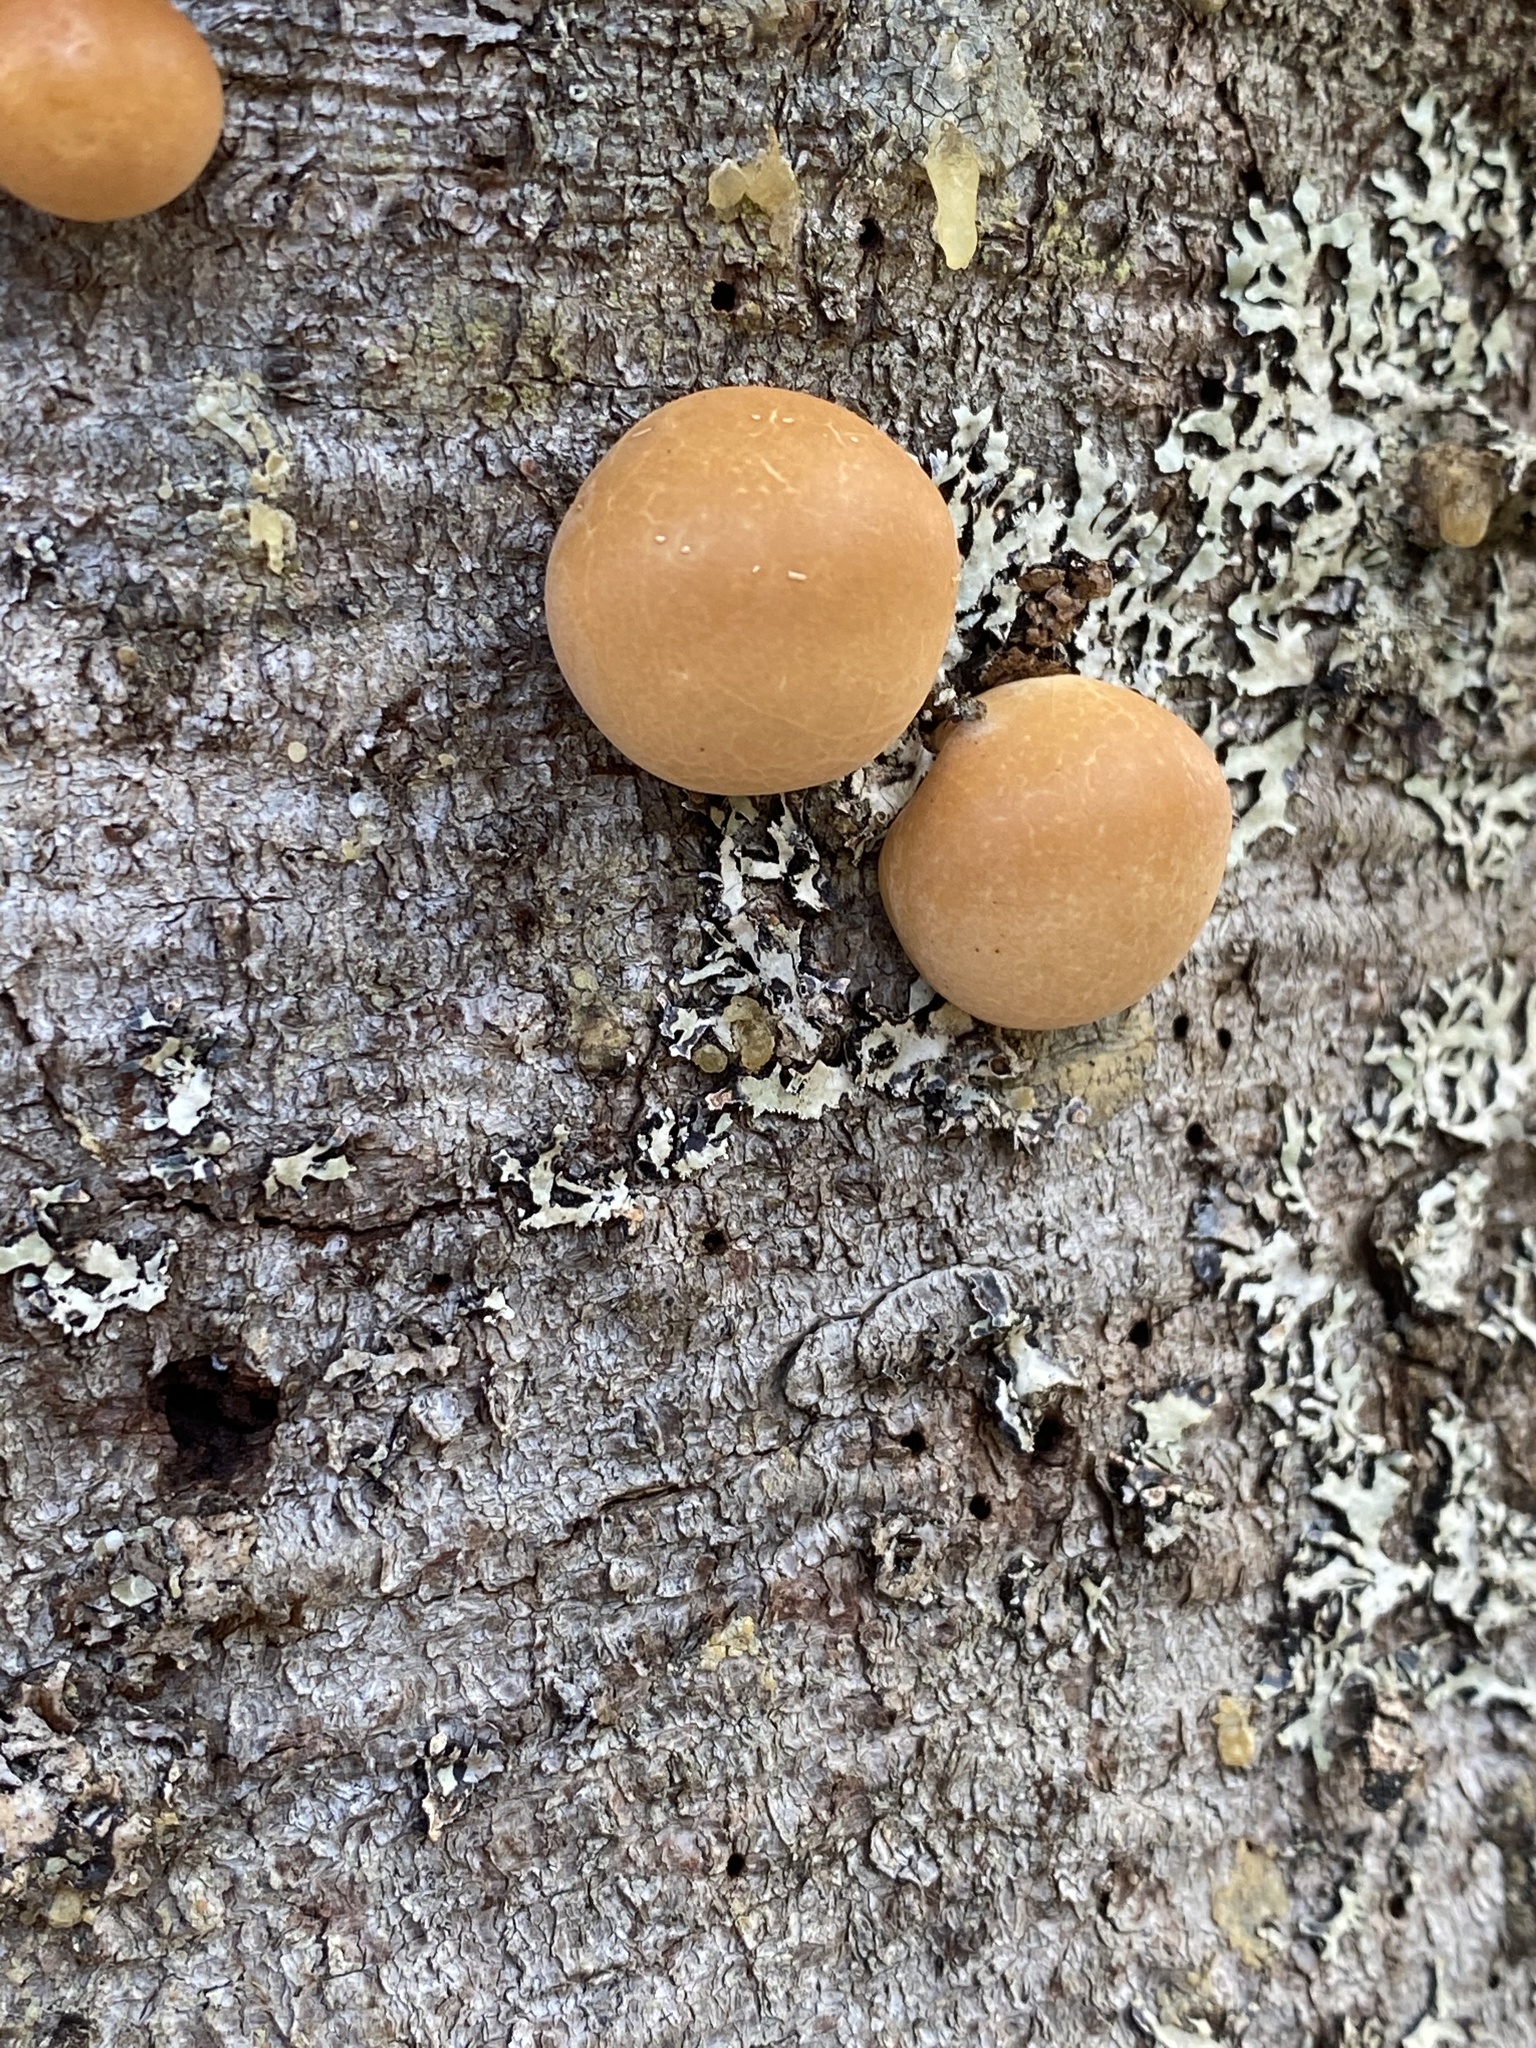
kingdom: Fungi
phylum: Basidiomycota
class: Agaricomycetes
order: Polyporales
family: Polyporaceae
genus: Cryptoporus
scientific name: Cryptoporus volvatus
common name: Veiled polypore
